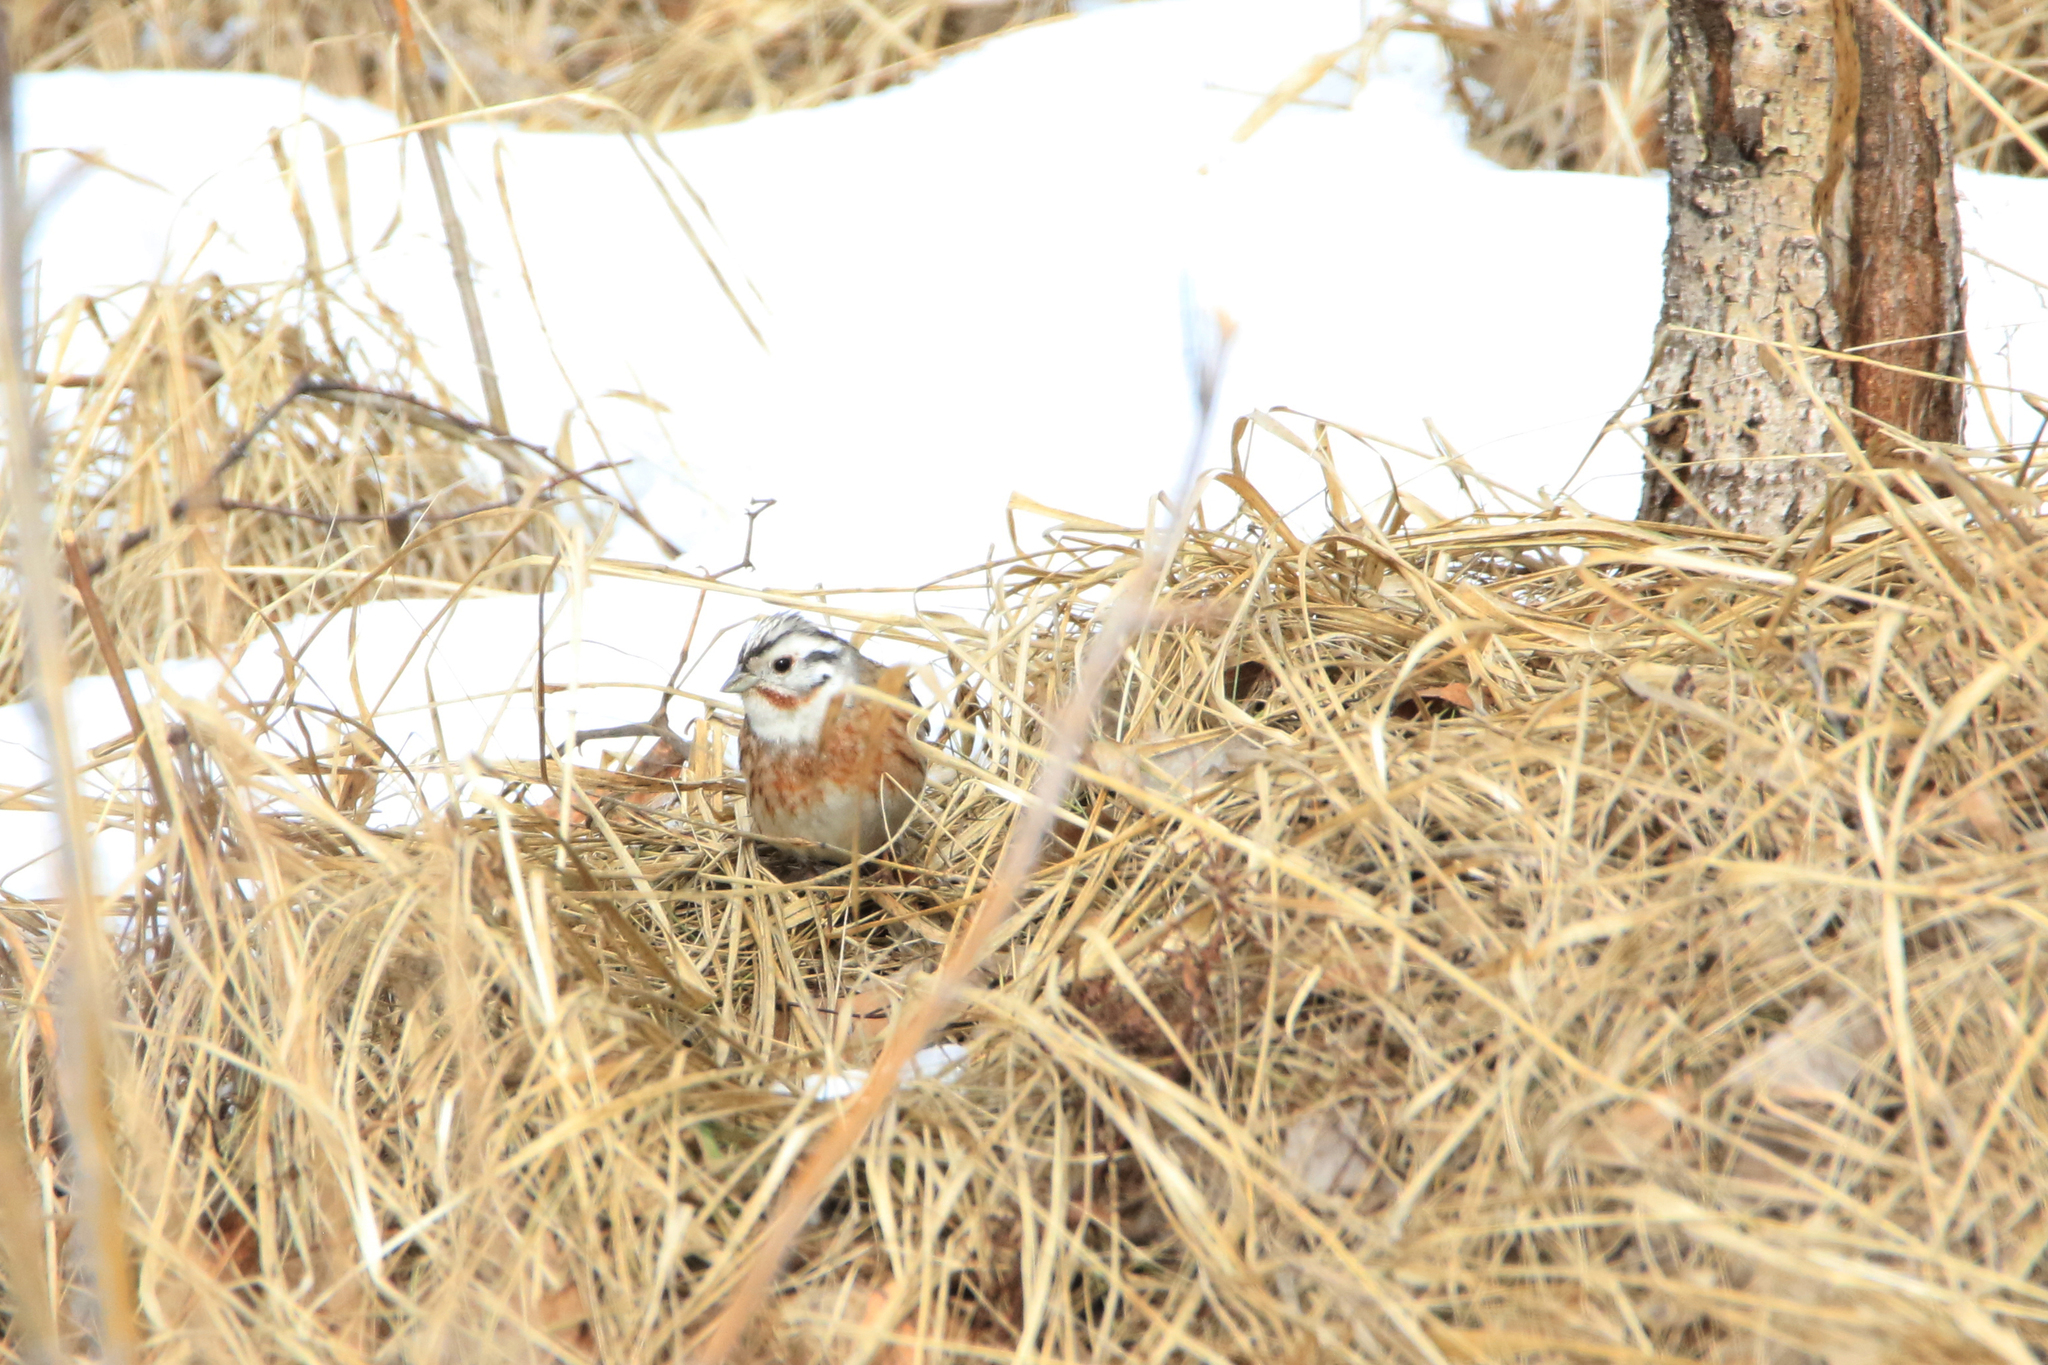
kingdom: Animalia
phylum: Chordata
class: Aves
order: Passeriformes
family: Emberizidae
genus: Emberiza
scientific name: Emberiza
